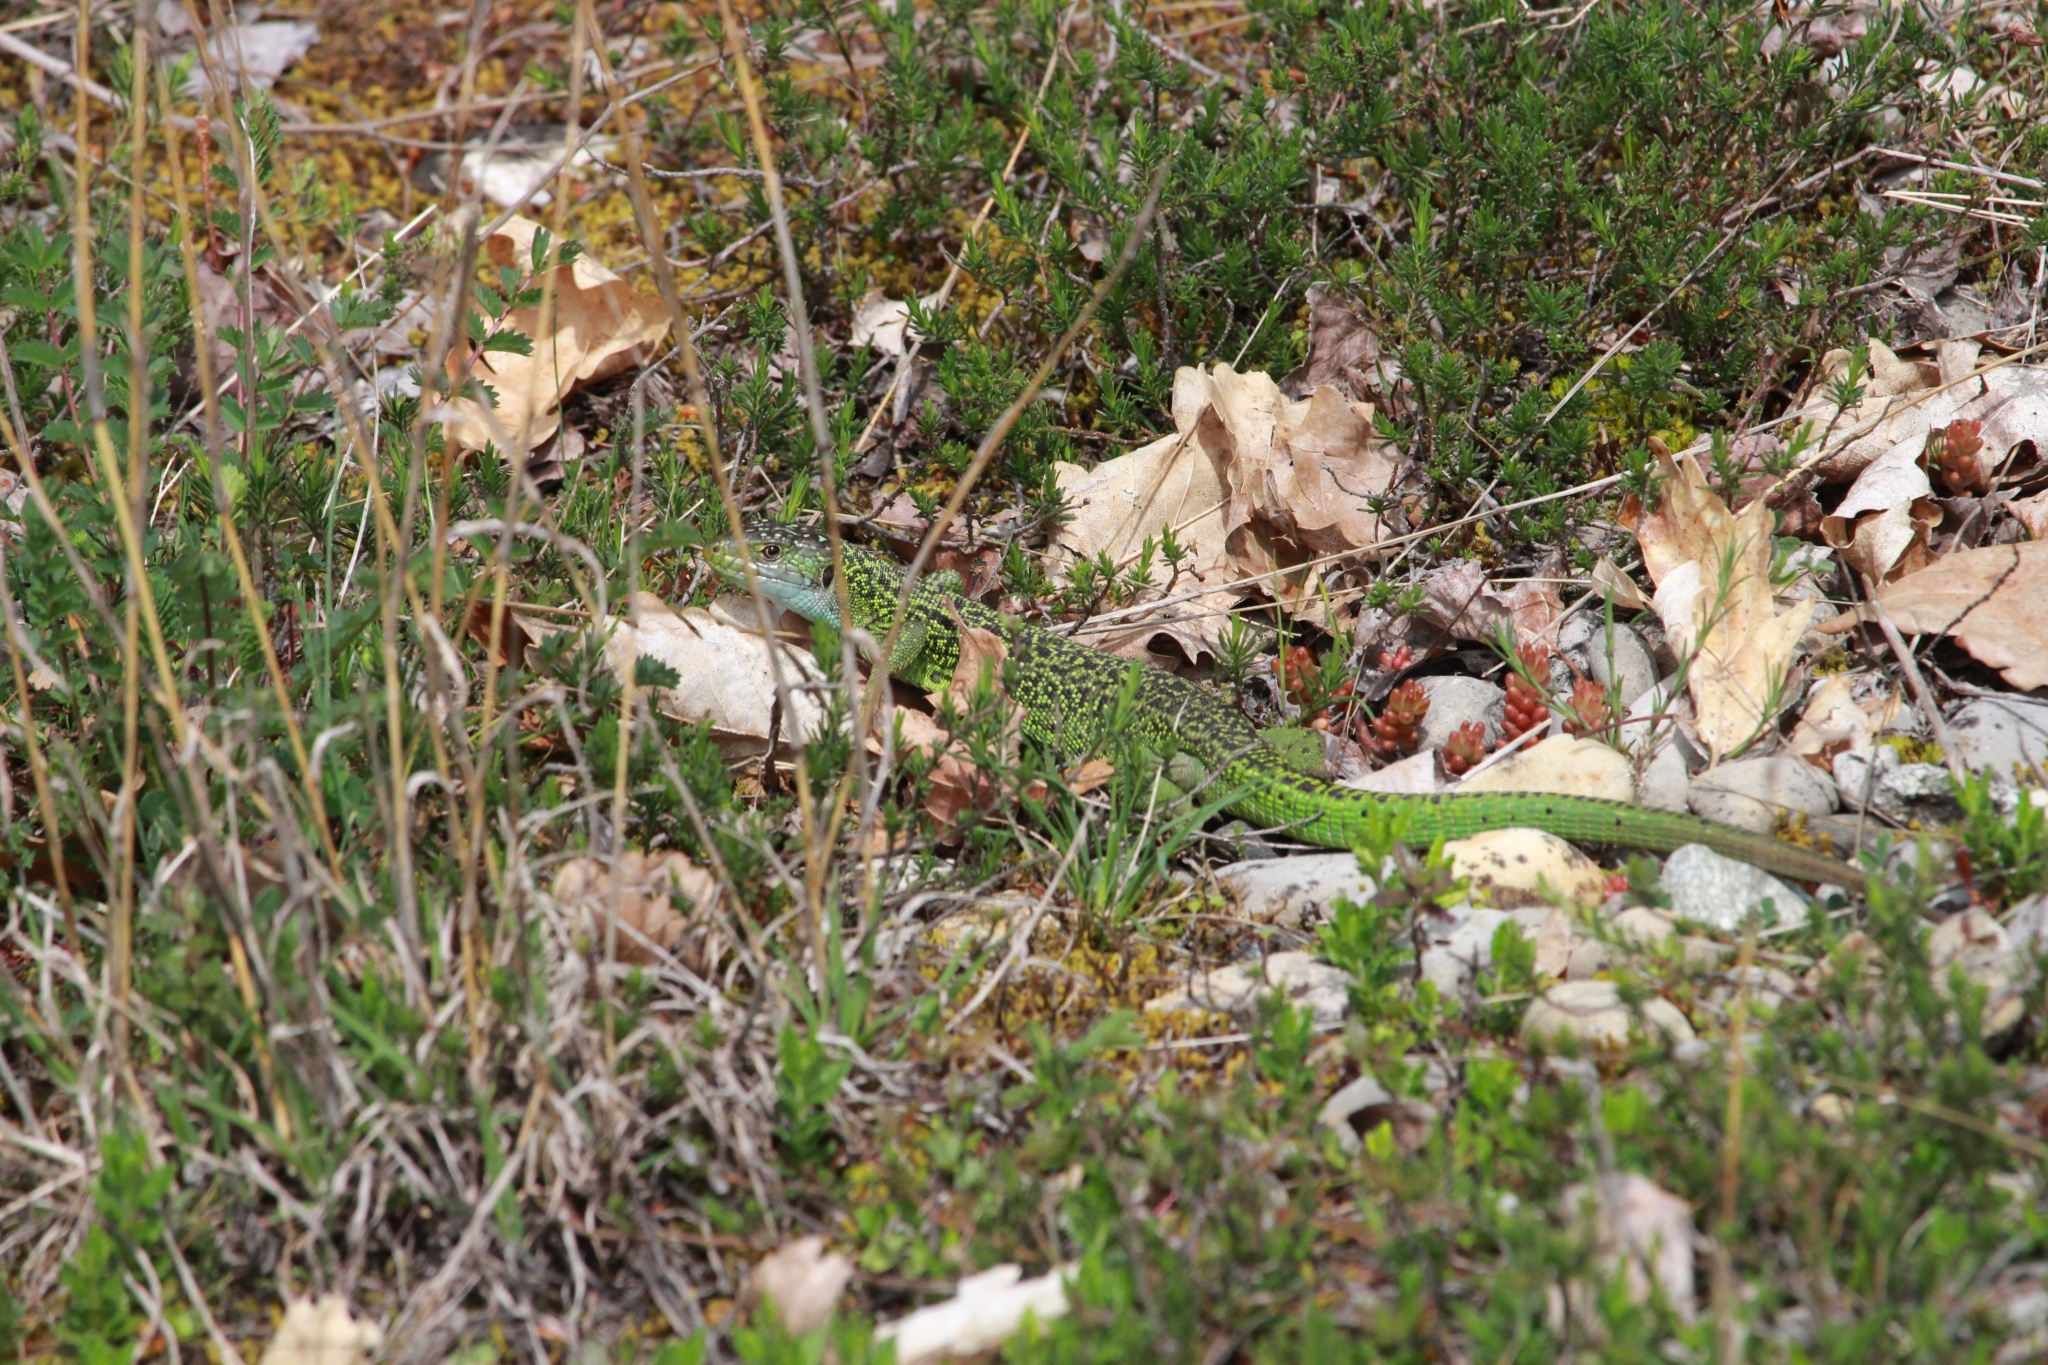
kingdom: Animalia
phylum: Chordata
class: Squamata
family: Lacertidae
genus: Lacerta
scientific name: Lacerta bilineata
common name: Western green lizard
